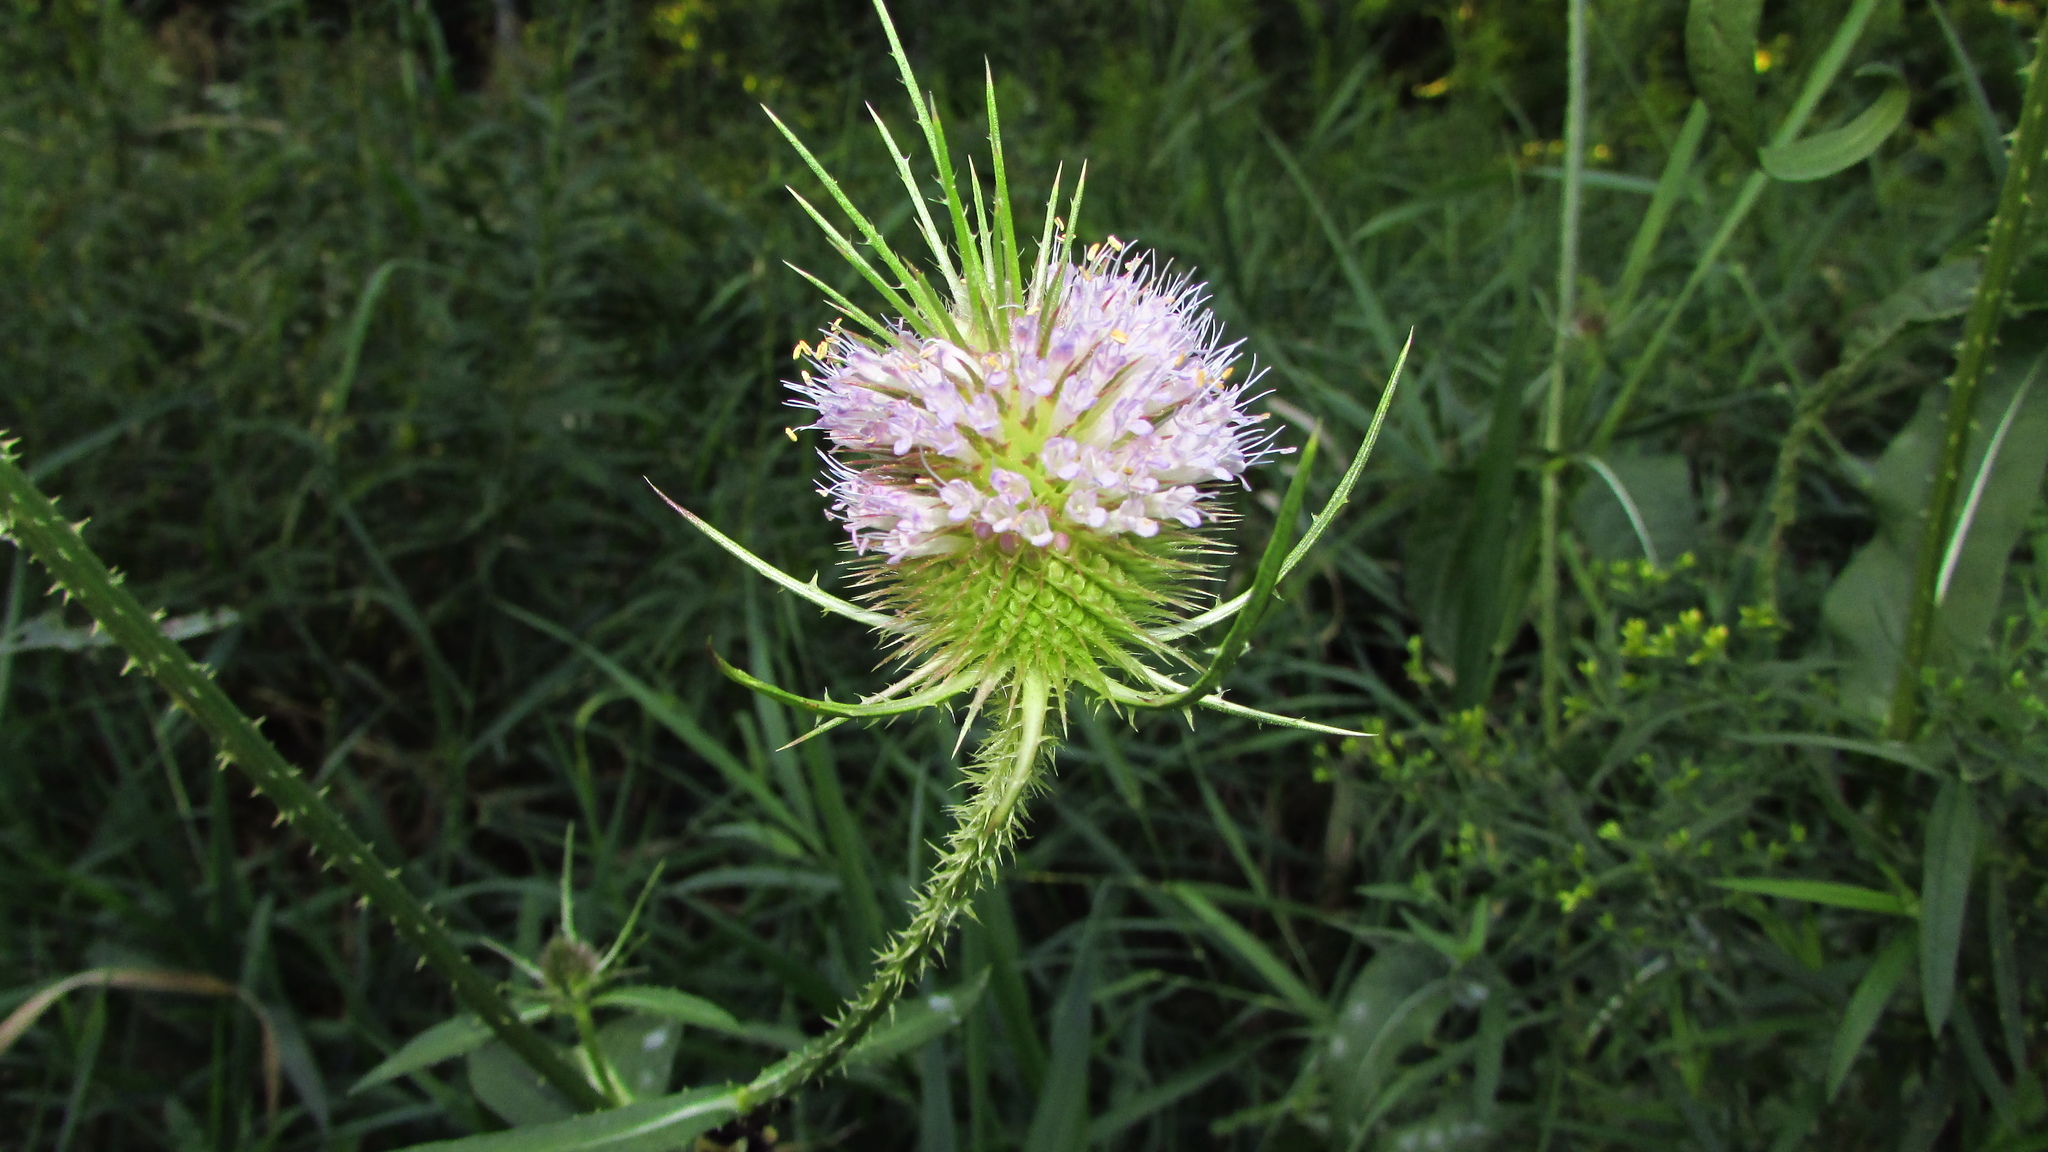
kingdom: Plantae
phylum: Tracheophyta
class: Magnoliopsida
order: Dipsacales
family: Caprifoliaceae
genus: Dipsacus
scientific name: Dipsacus fullonum
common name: Teasel
